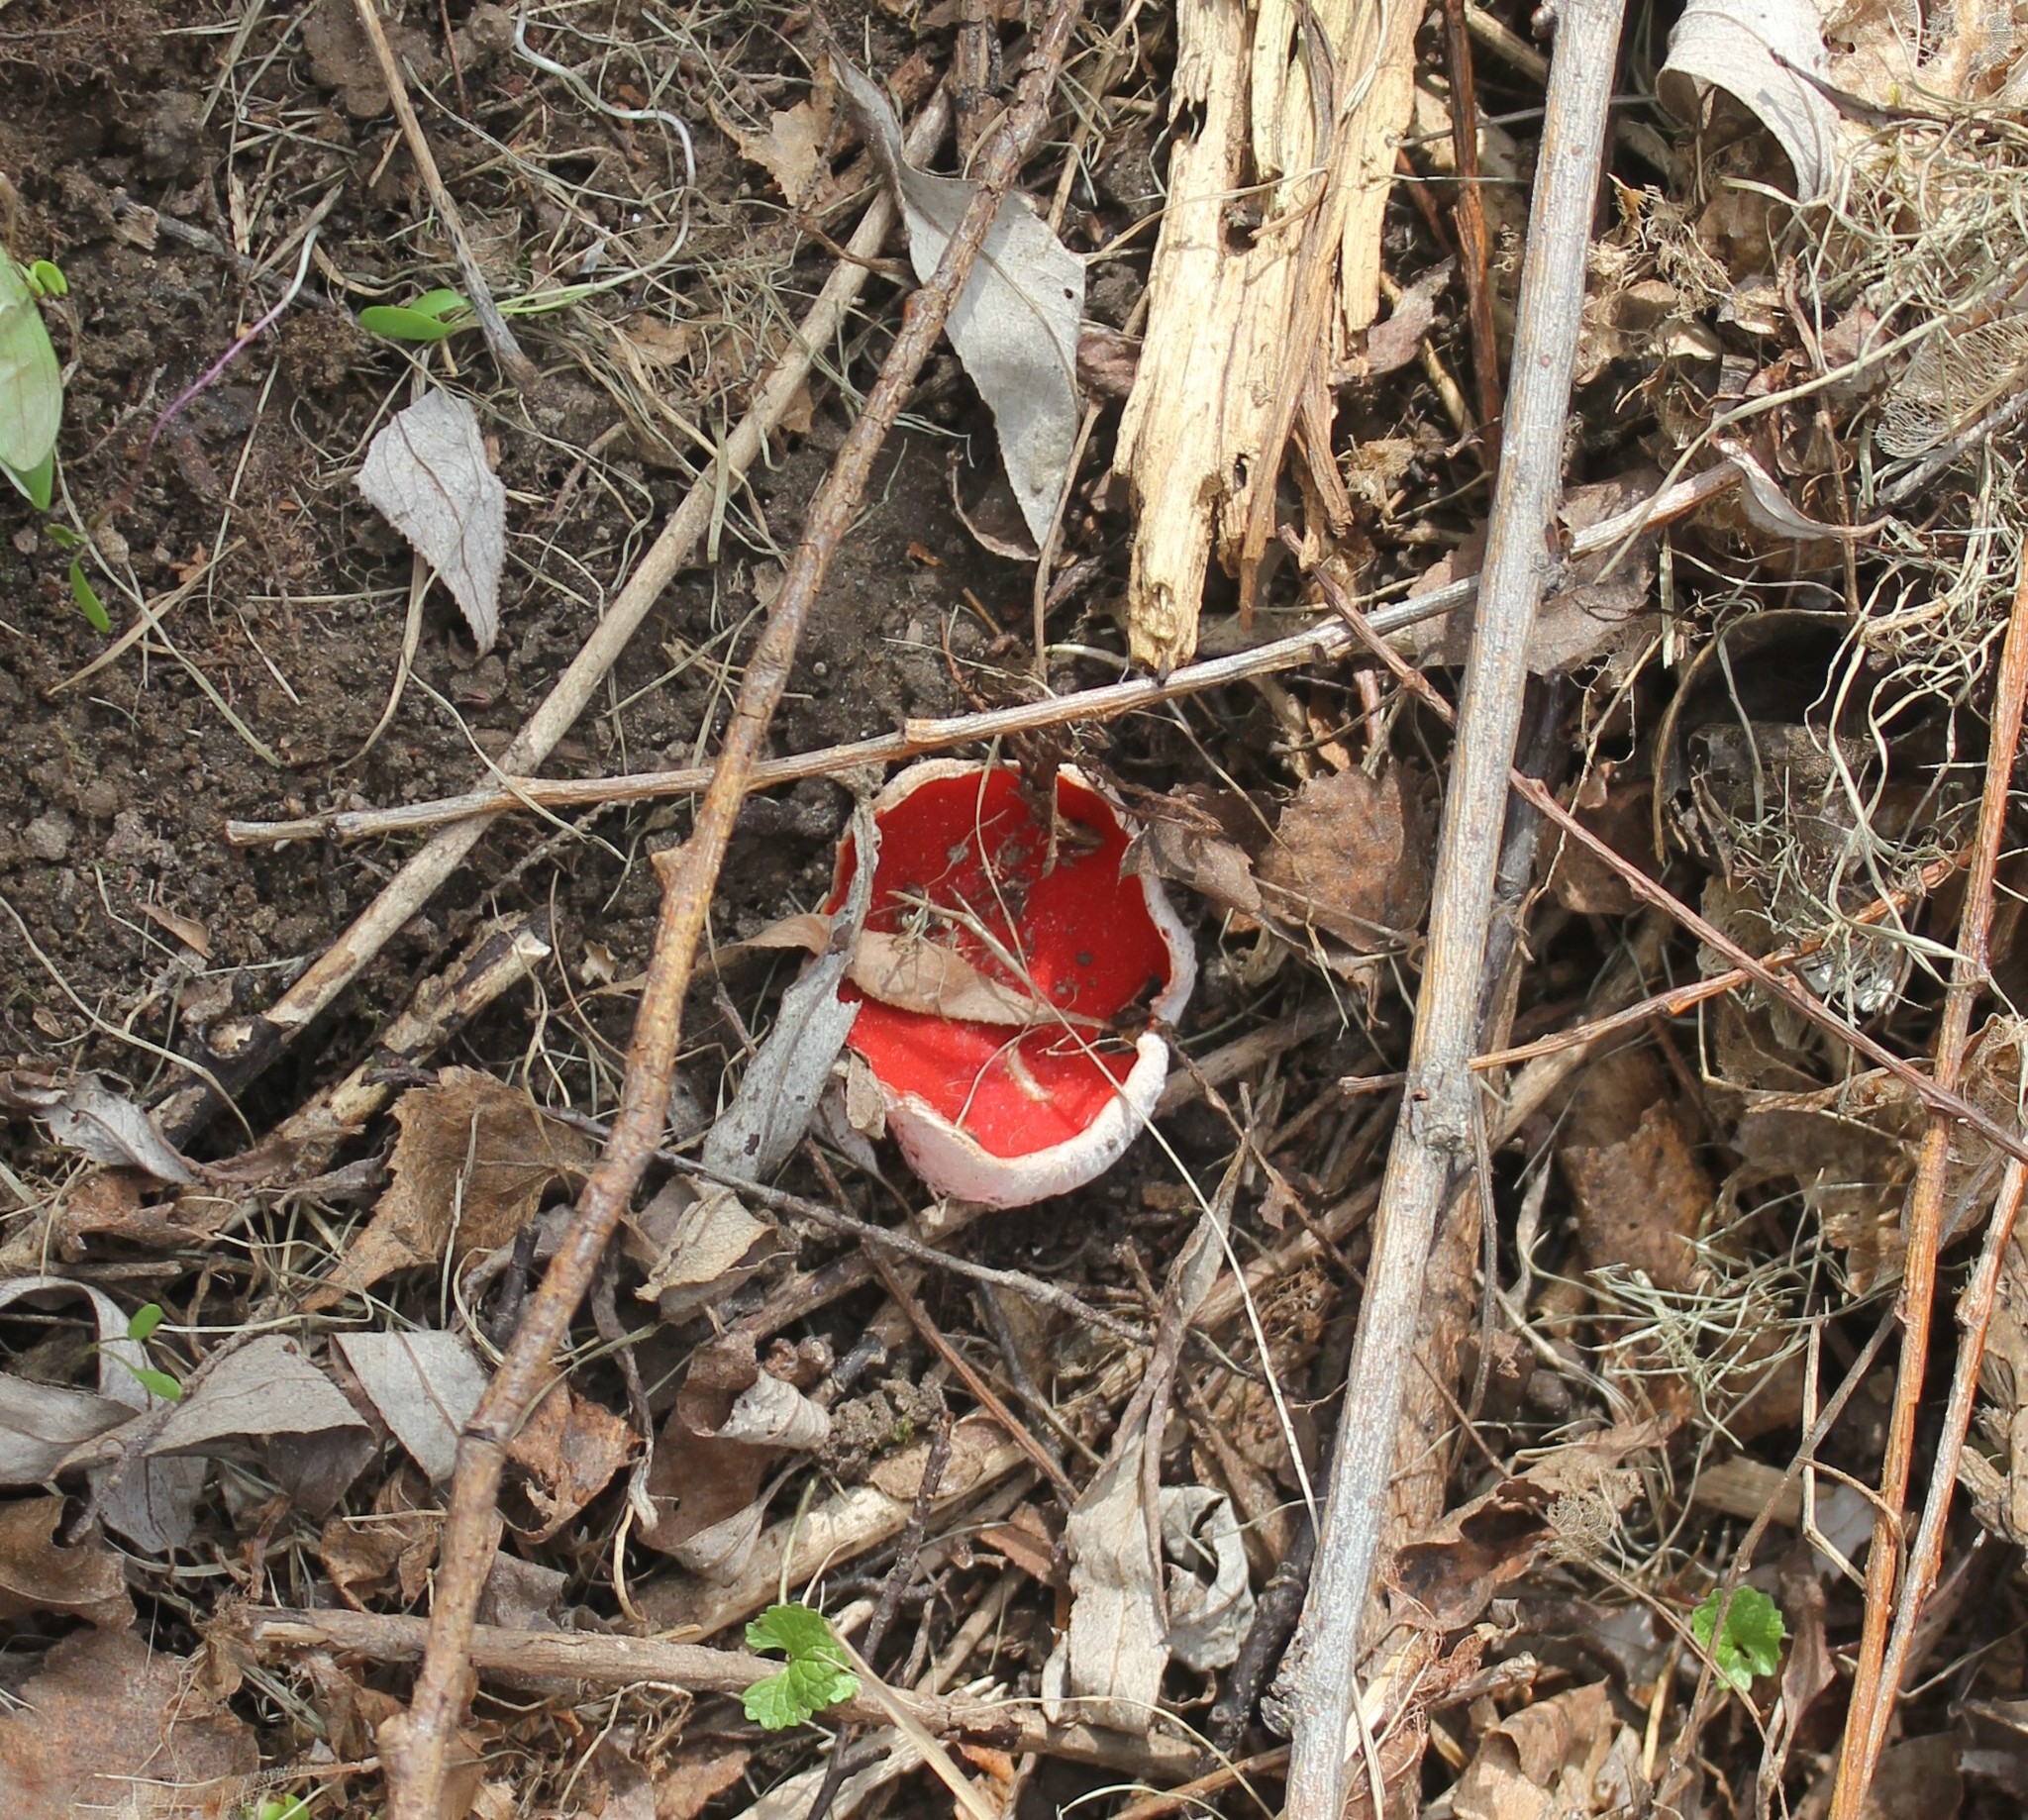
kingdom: Fungi
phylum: Ascomycota
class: Pezizomycetes
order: Pezizales
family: Sarcoscyphaceae
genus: Sarcoscypha
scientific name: Sarcoscypha austriaca
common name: Scarlet elfcup
